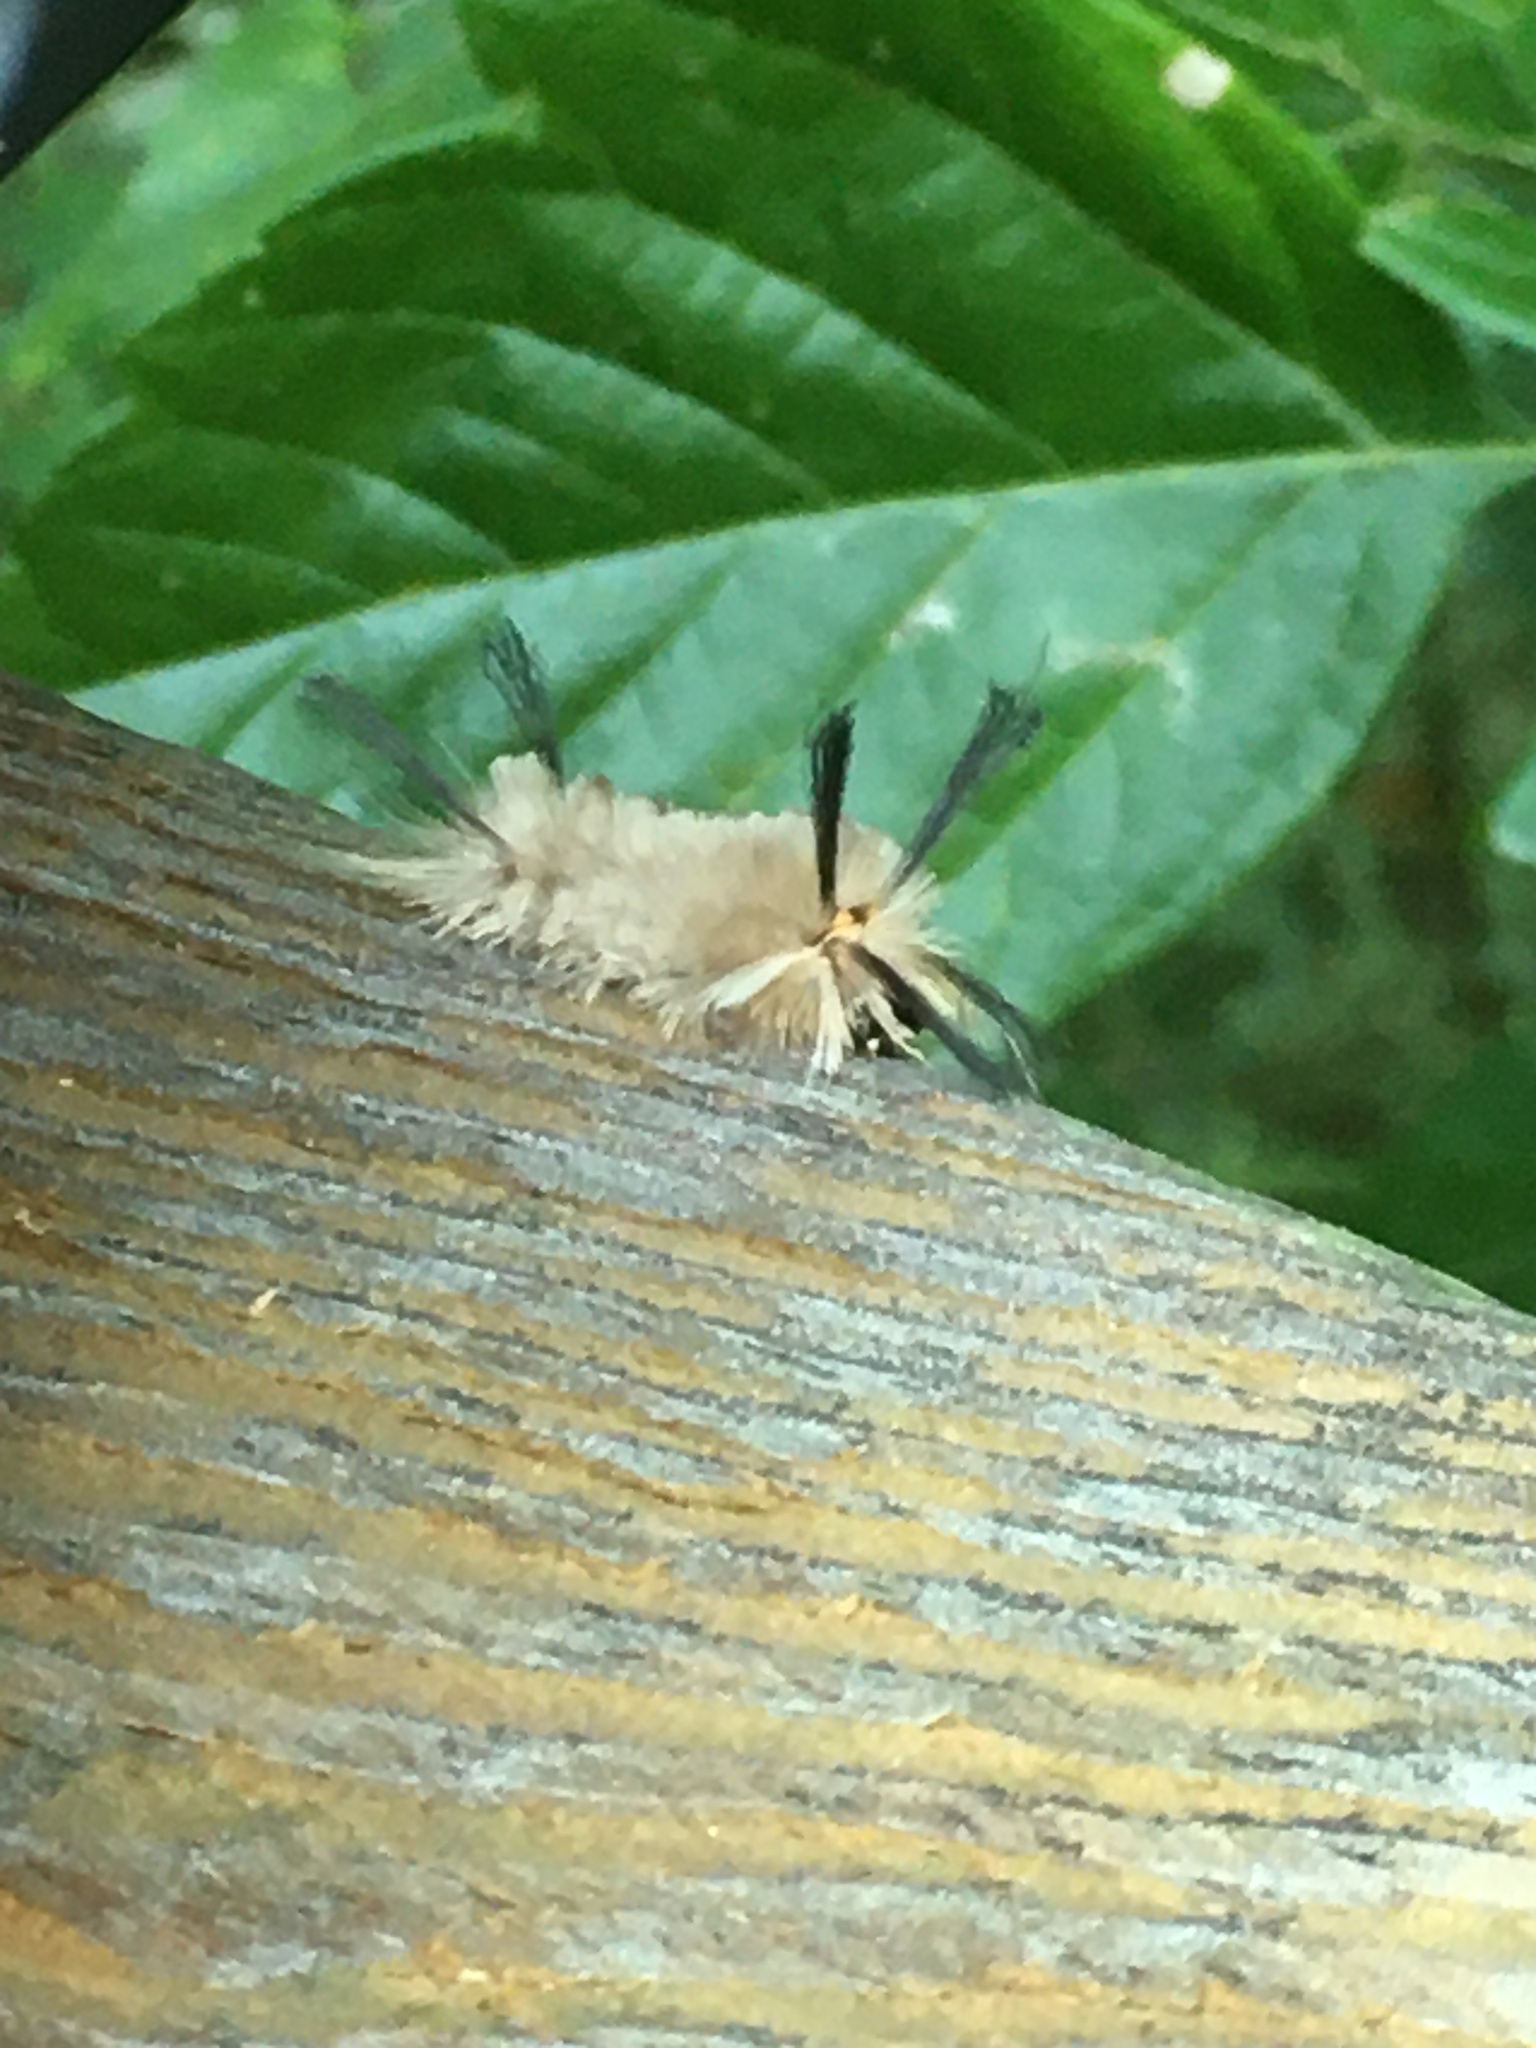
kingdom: Animalia
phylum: Arthropoda
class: Insecta
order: Lepidoptera
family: Erebidae
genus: Halysidota
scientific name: Halysidota tessellaris
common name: Banded tussock moth
